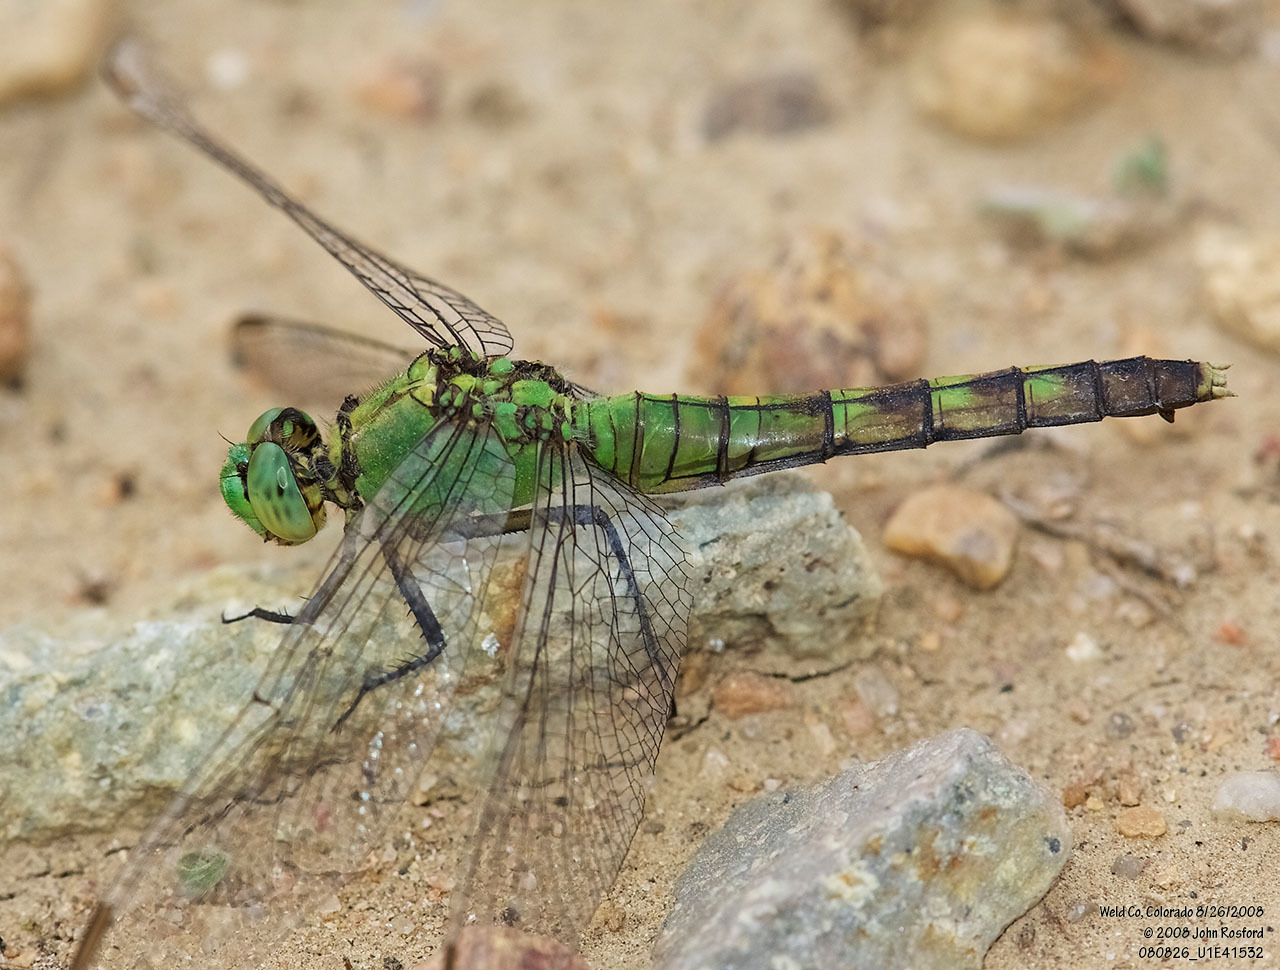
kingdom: Animalia
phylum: Arthropoda
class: Insecta
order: Odonata
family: Libellulidae
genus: Erythemis
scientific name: Erythemis collocata
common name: Western pondhawk
